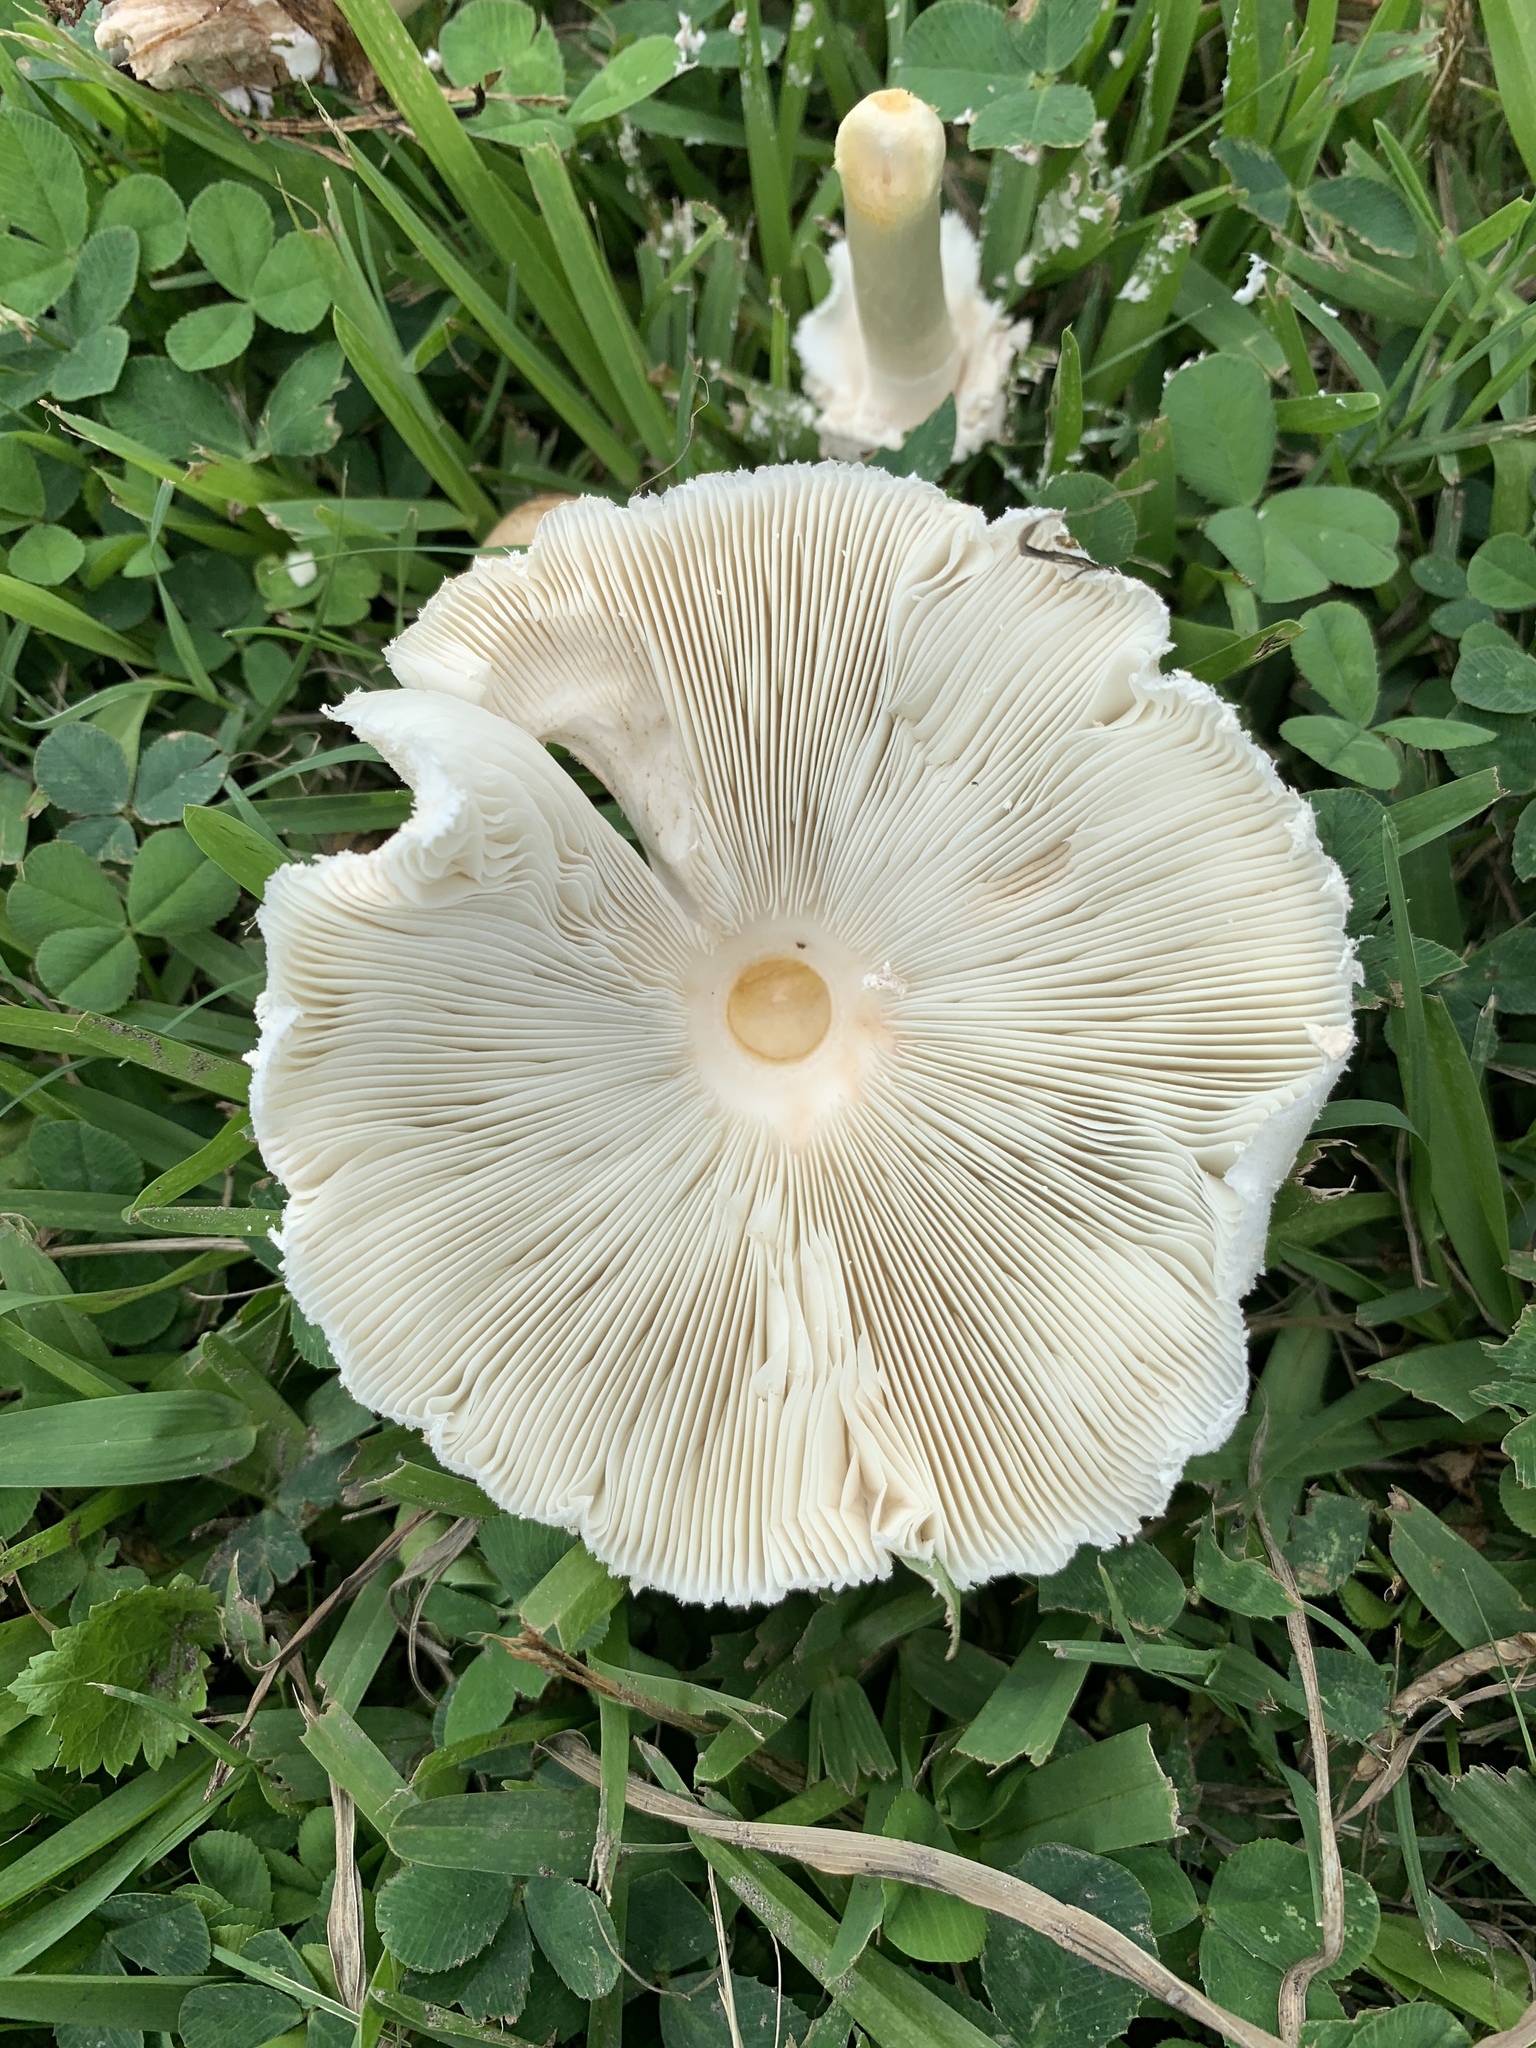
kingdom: Fungi
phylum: Basidiomycota
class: Agaricomycetes
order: Agaricales
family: Agaricaceae
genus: Chlorophyllum
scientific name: Chlorophyllum molybdites
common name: False parasol
